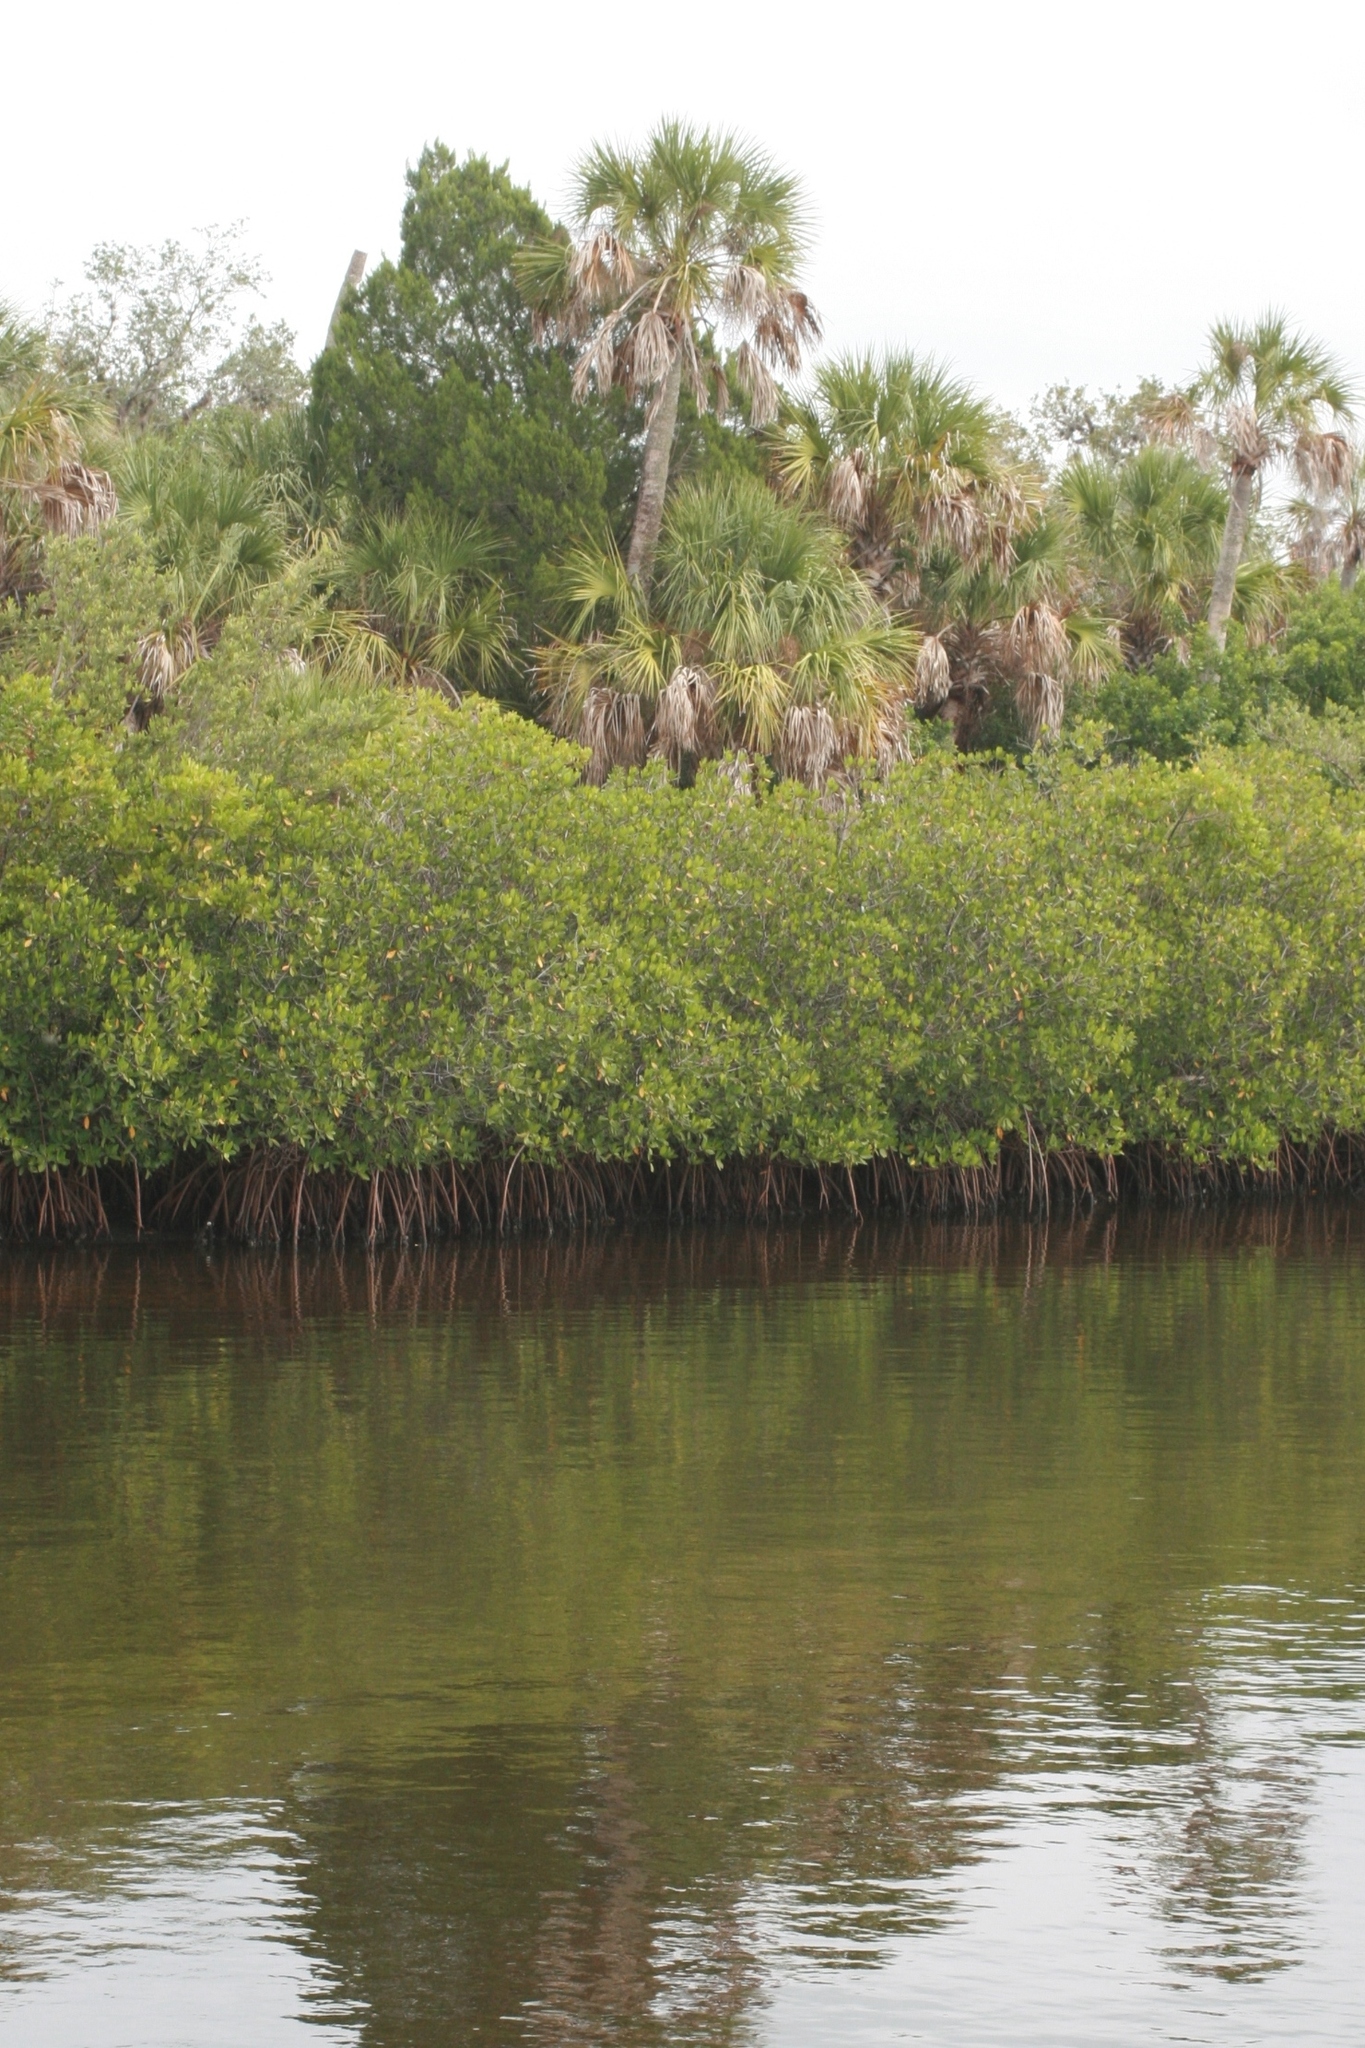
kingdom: Plantae
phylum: Tracheophyta
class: Liliopsida
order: Arecales
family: Arecaceae
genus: Sabal
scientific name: Sabal palmetto
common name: Blue palmetto
